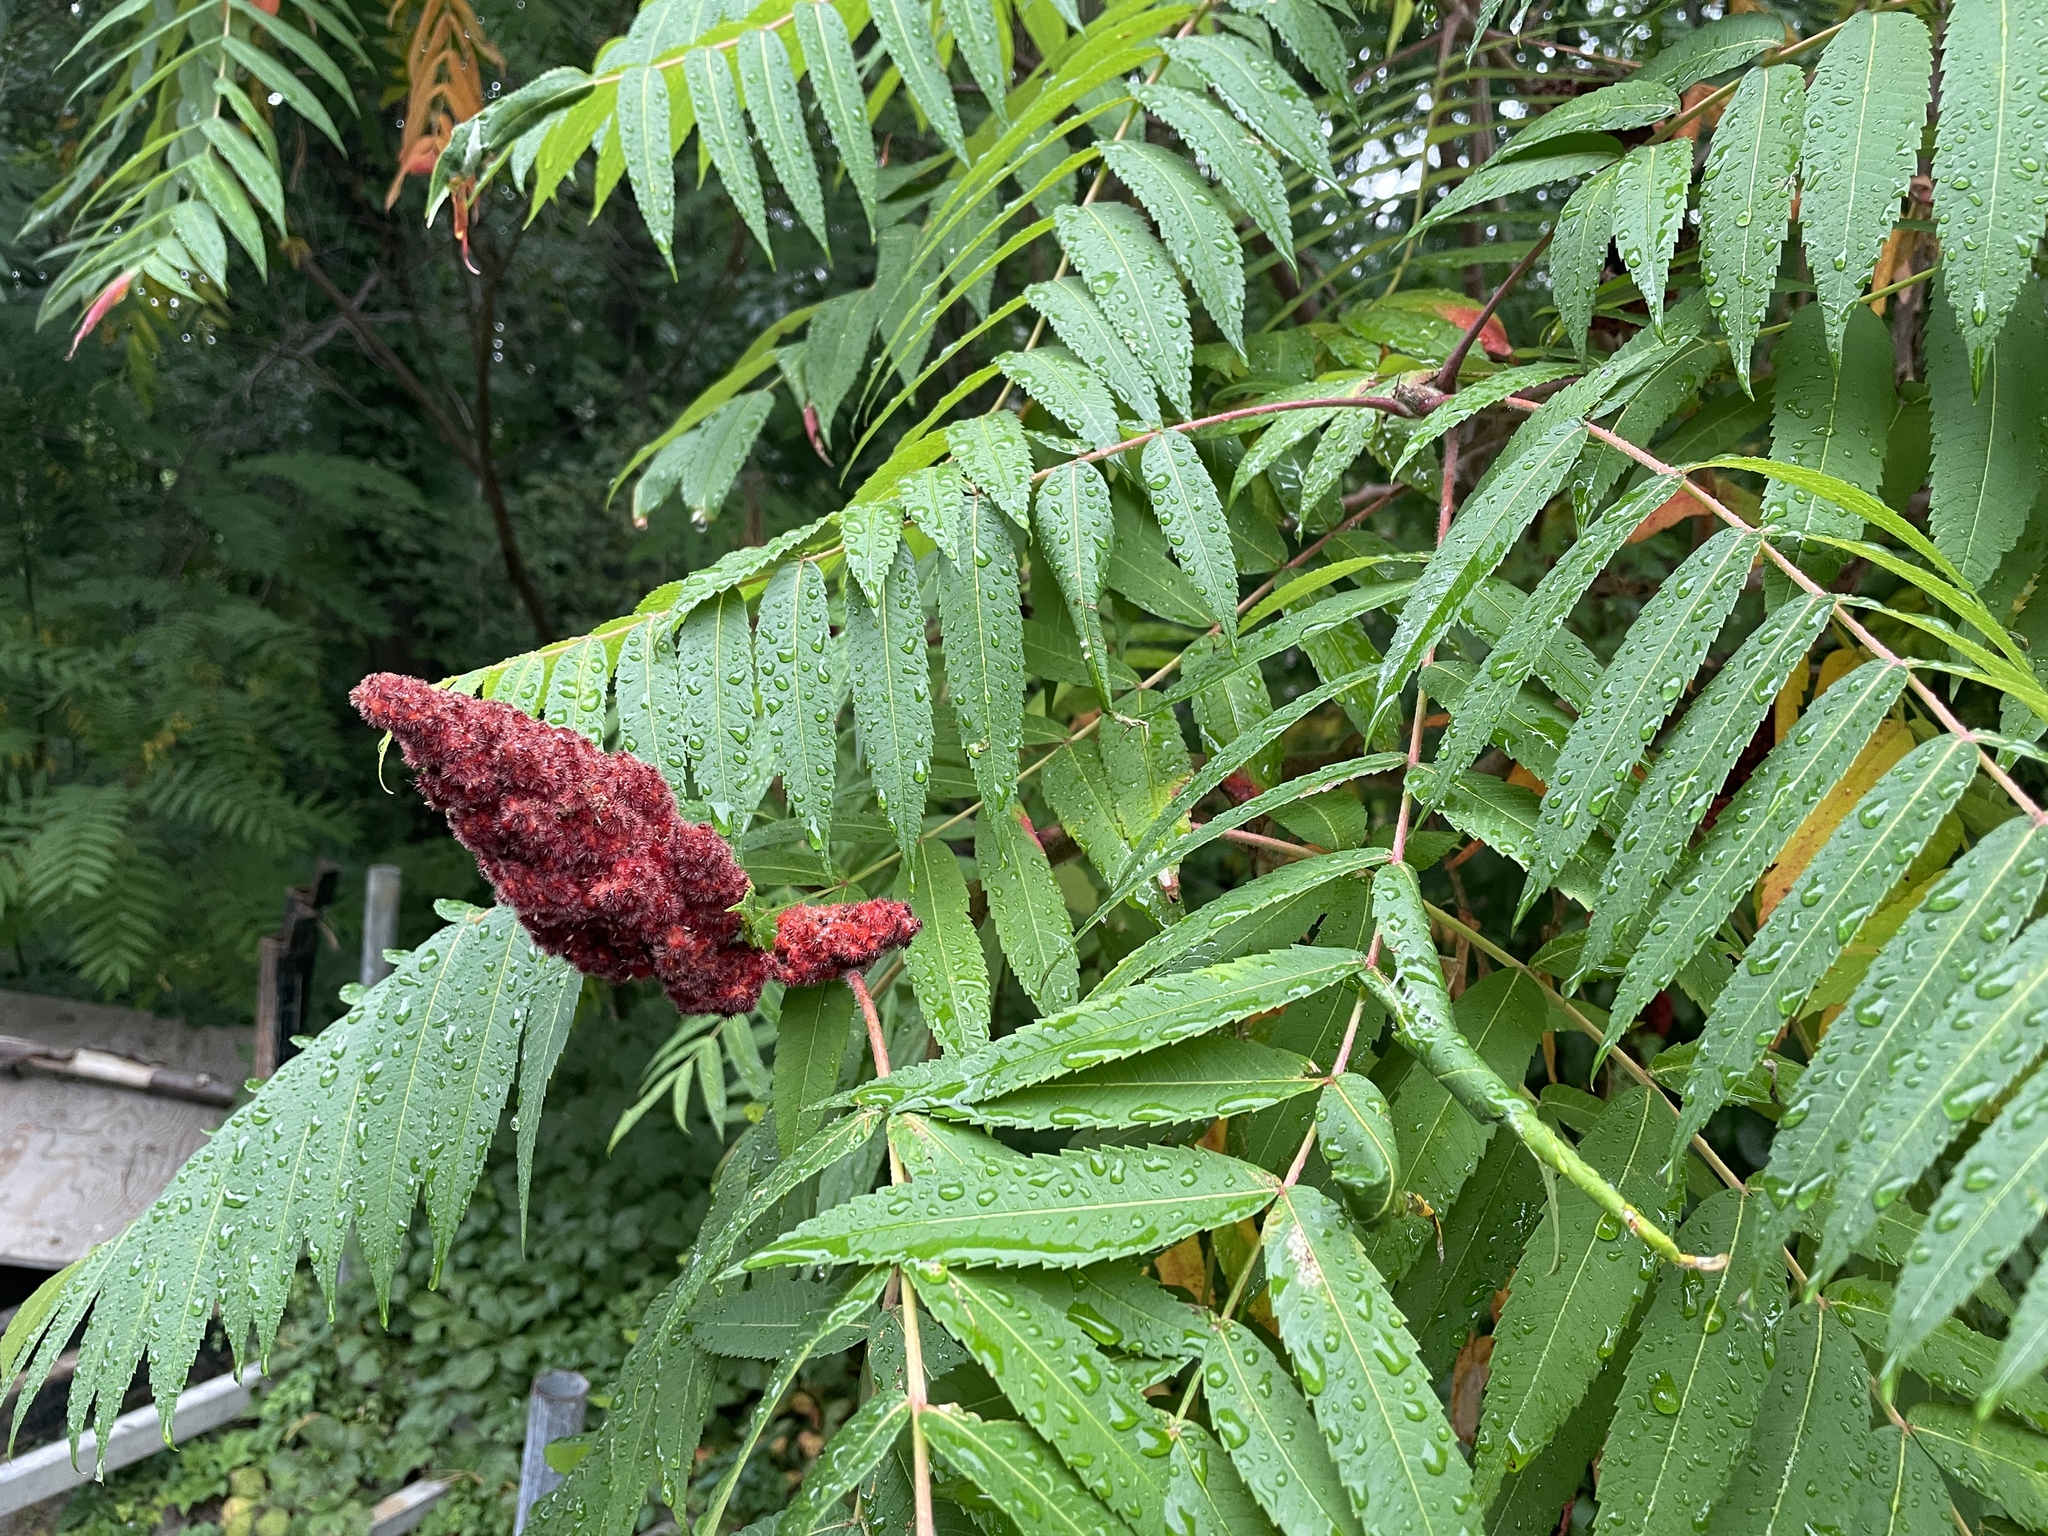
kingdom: Plantae
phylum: Tracheophyta
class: Magnoliopsida
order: Sapindales
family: Anacardiaceae
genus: Rhus
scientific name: Rhus typhina
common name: Staghorn sumac
